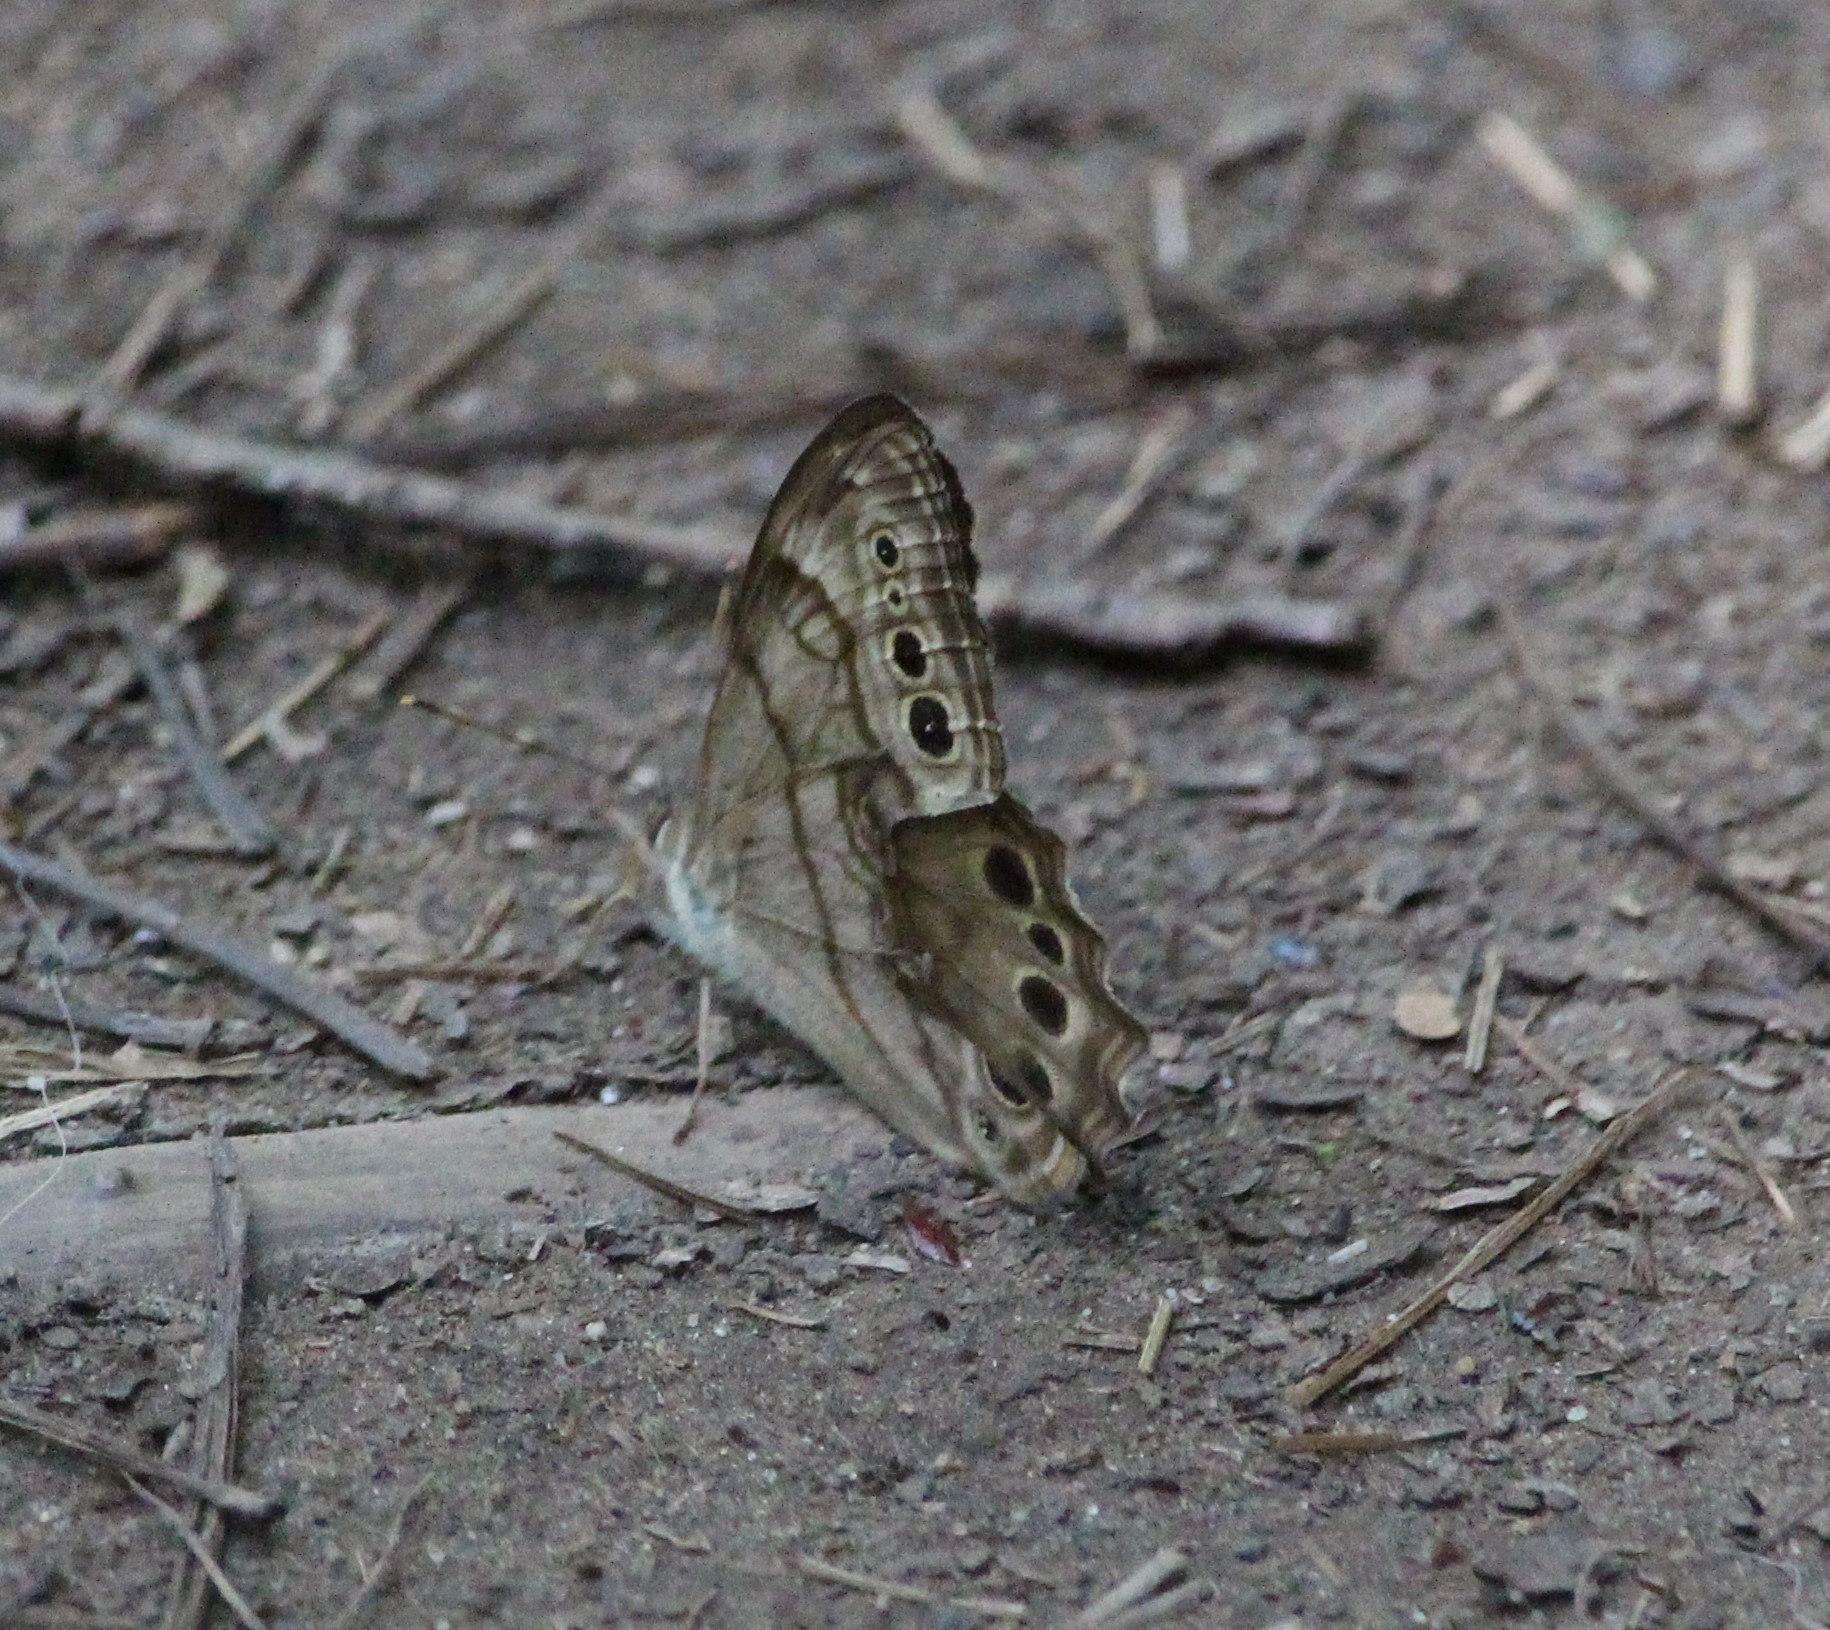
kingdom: Animalia
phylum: Arthropoda
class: Insecta
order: Lepidoptera
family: Nymphalidae
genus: Lethe
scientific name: Lethe anthedon
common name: Northern pearly-eye
